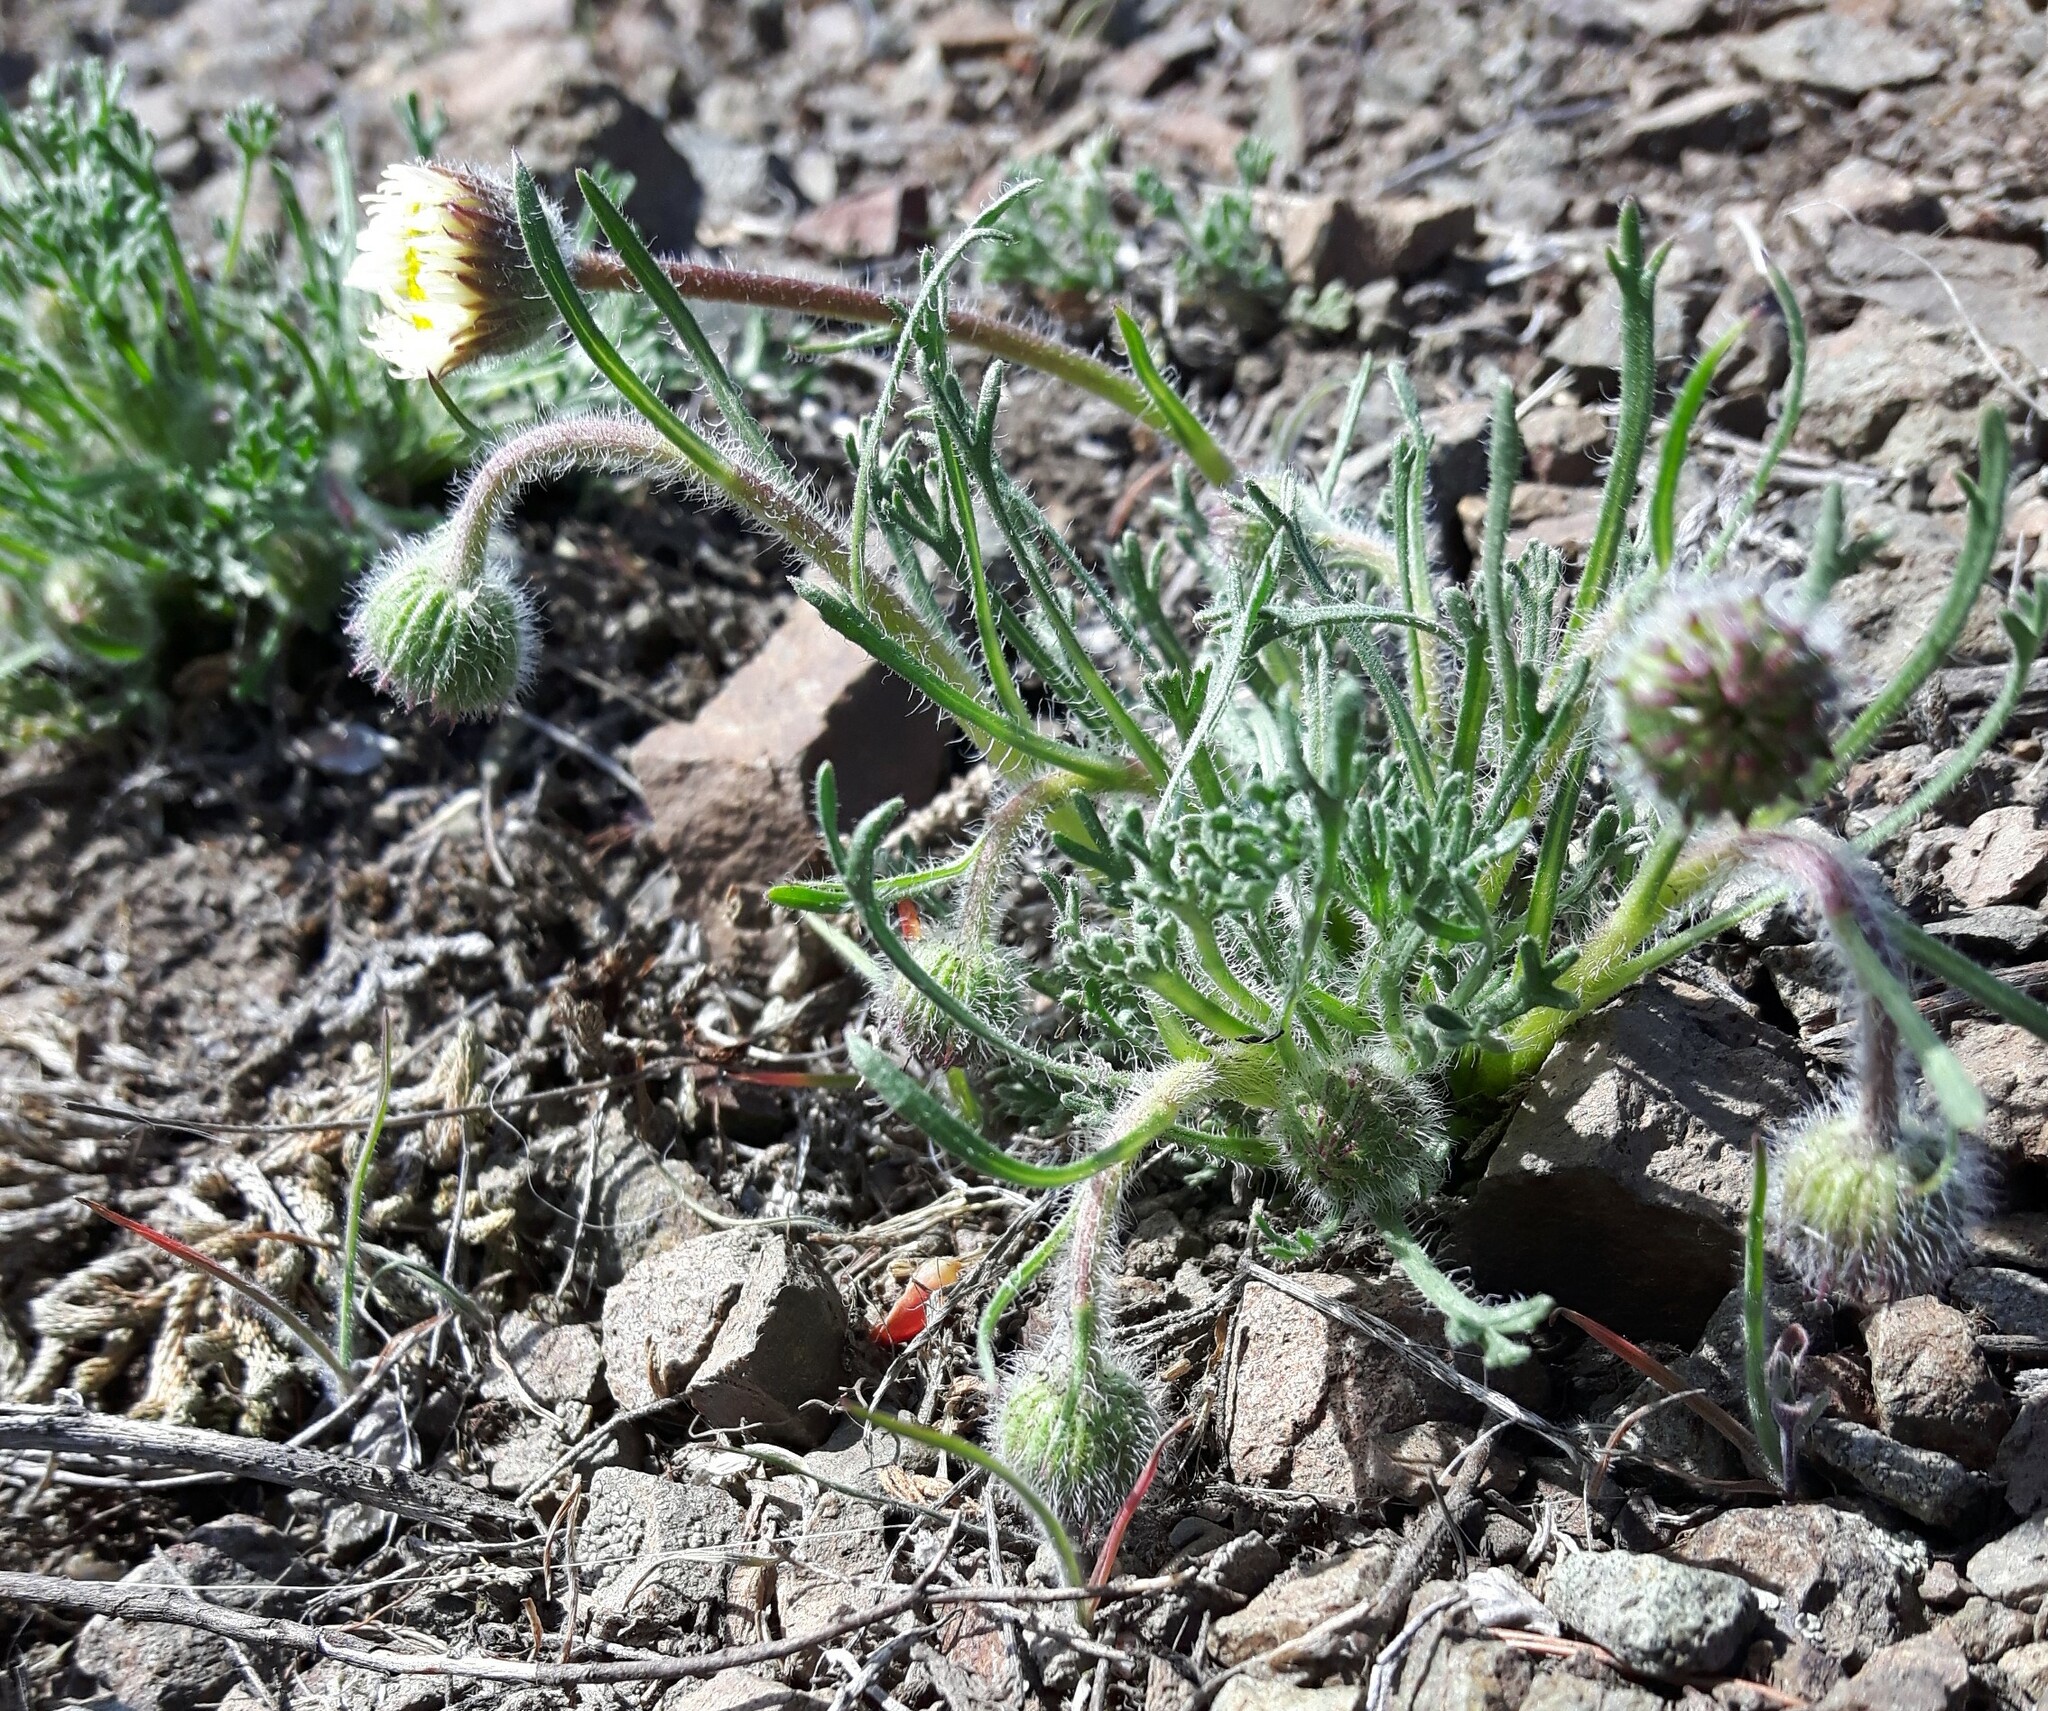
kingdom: Plantae
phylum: Tracheophyta
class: Magnoliopsida
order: Asterales
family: Asteraceae
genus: Erigeron
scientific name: Erigeron compositus
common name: Dwarf mountain fleabane
